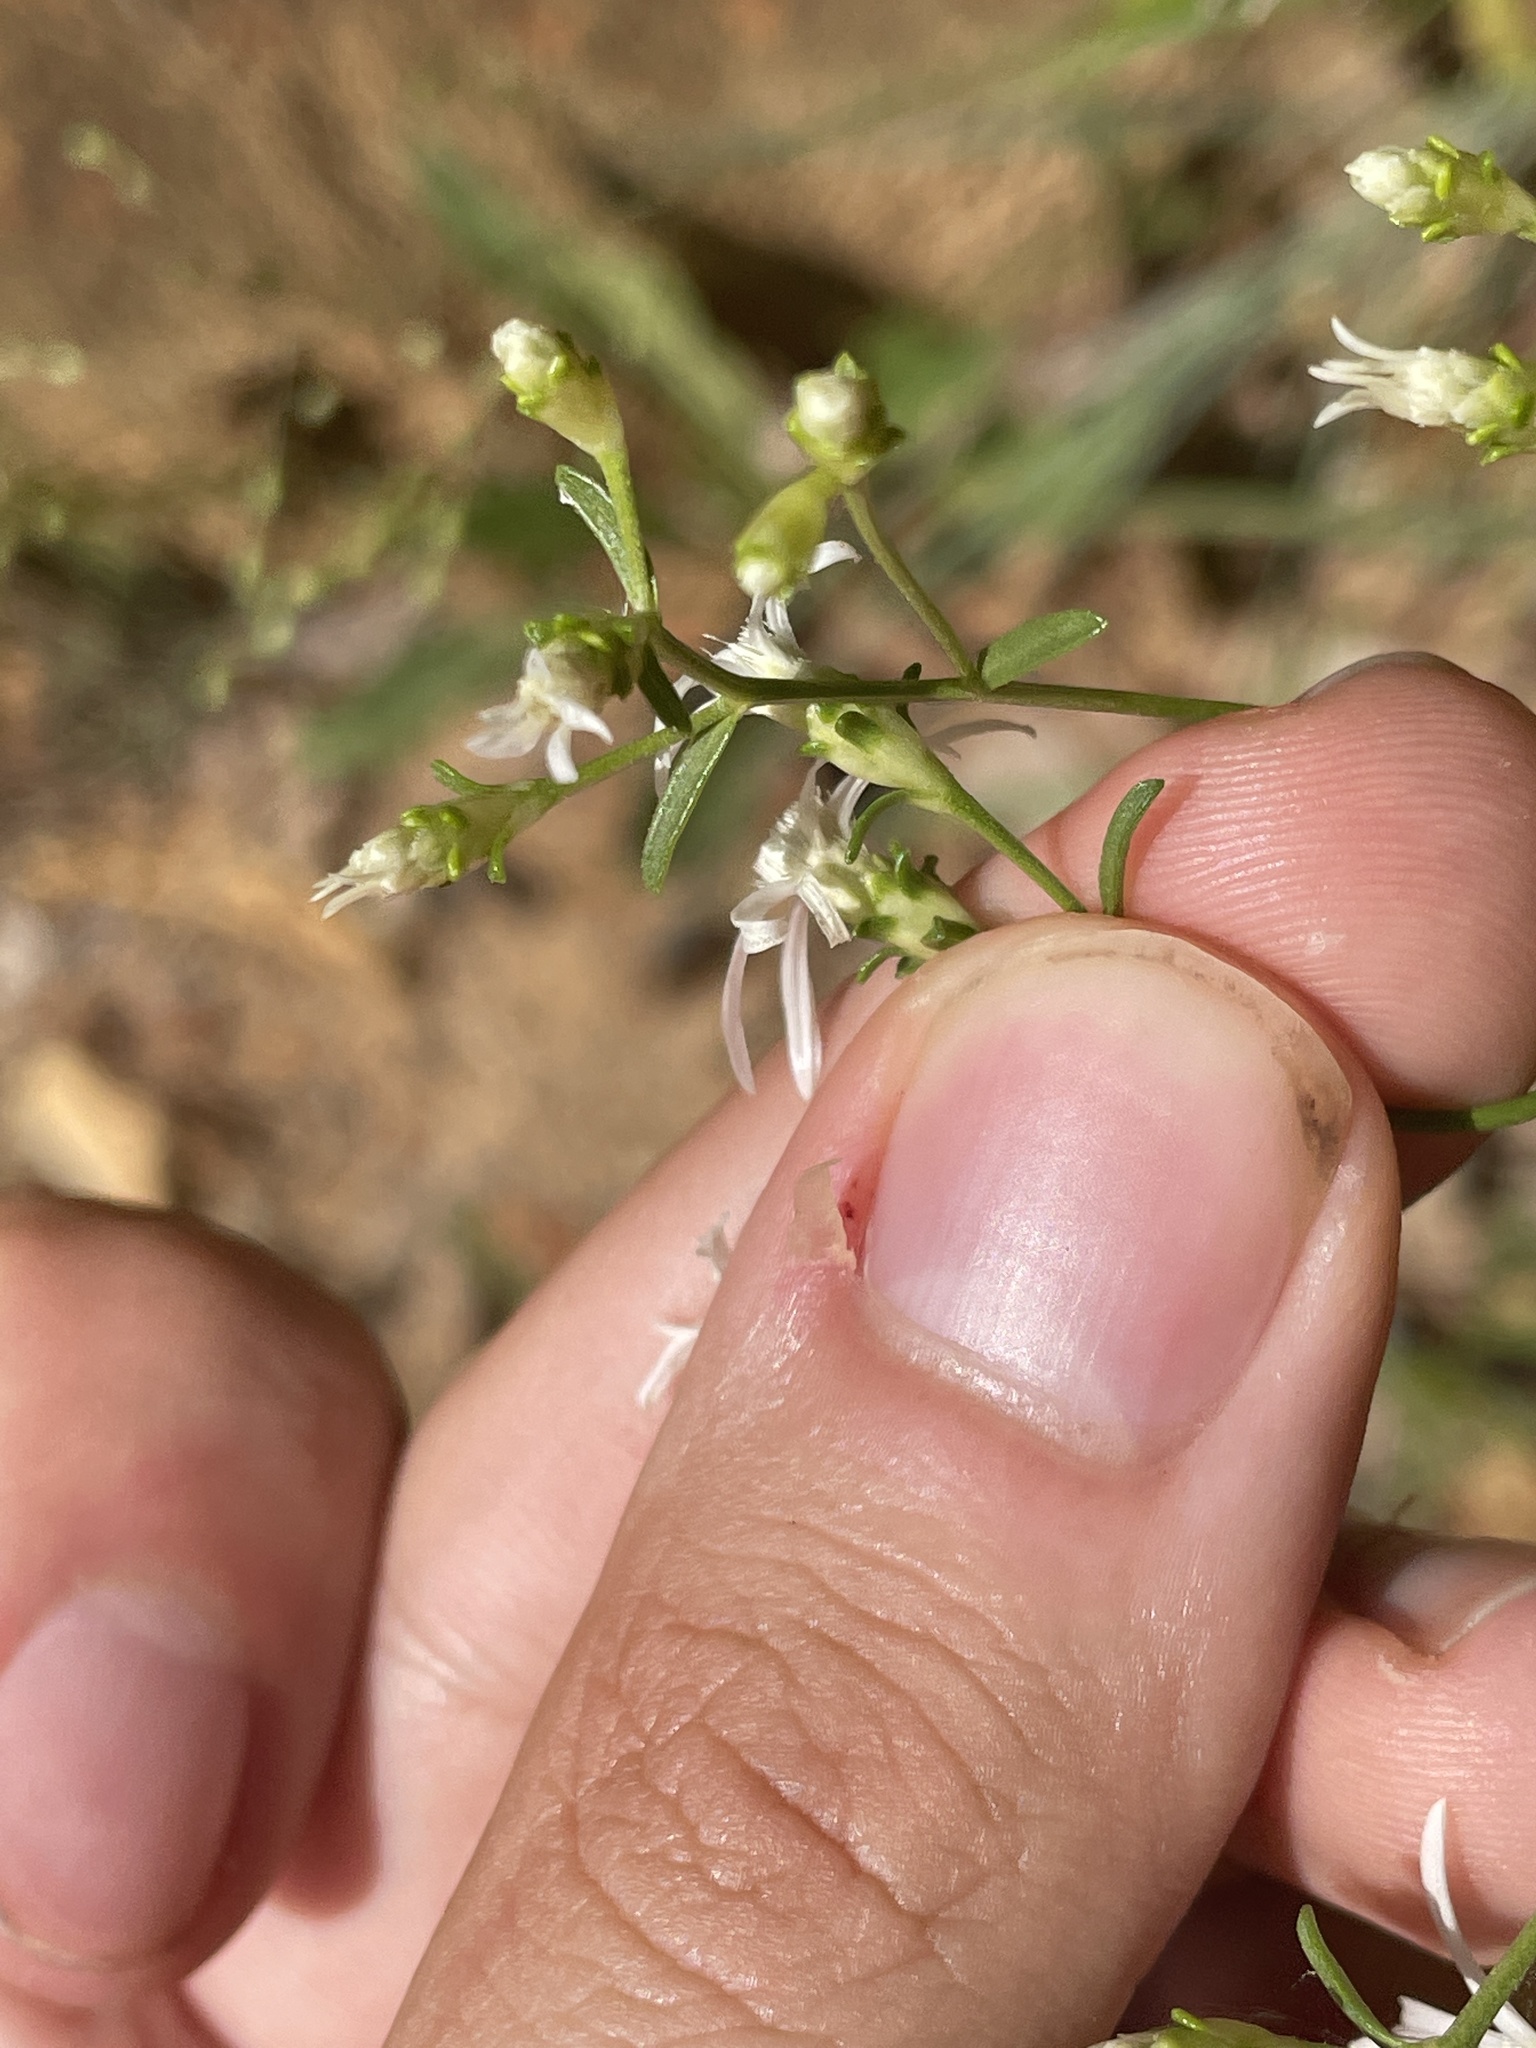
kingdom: Plantae
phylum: Tracheophyta
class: Magnoliopsida
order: Asterales
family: Asteraceae
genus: Sericocarpus
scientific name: Sericocarpus linifolius
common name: Narrow-leaf aster
